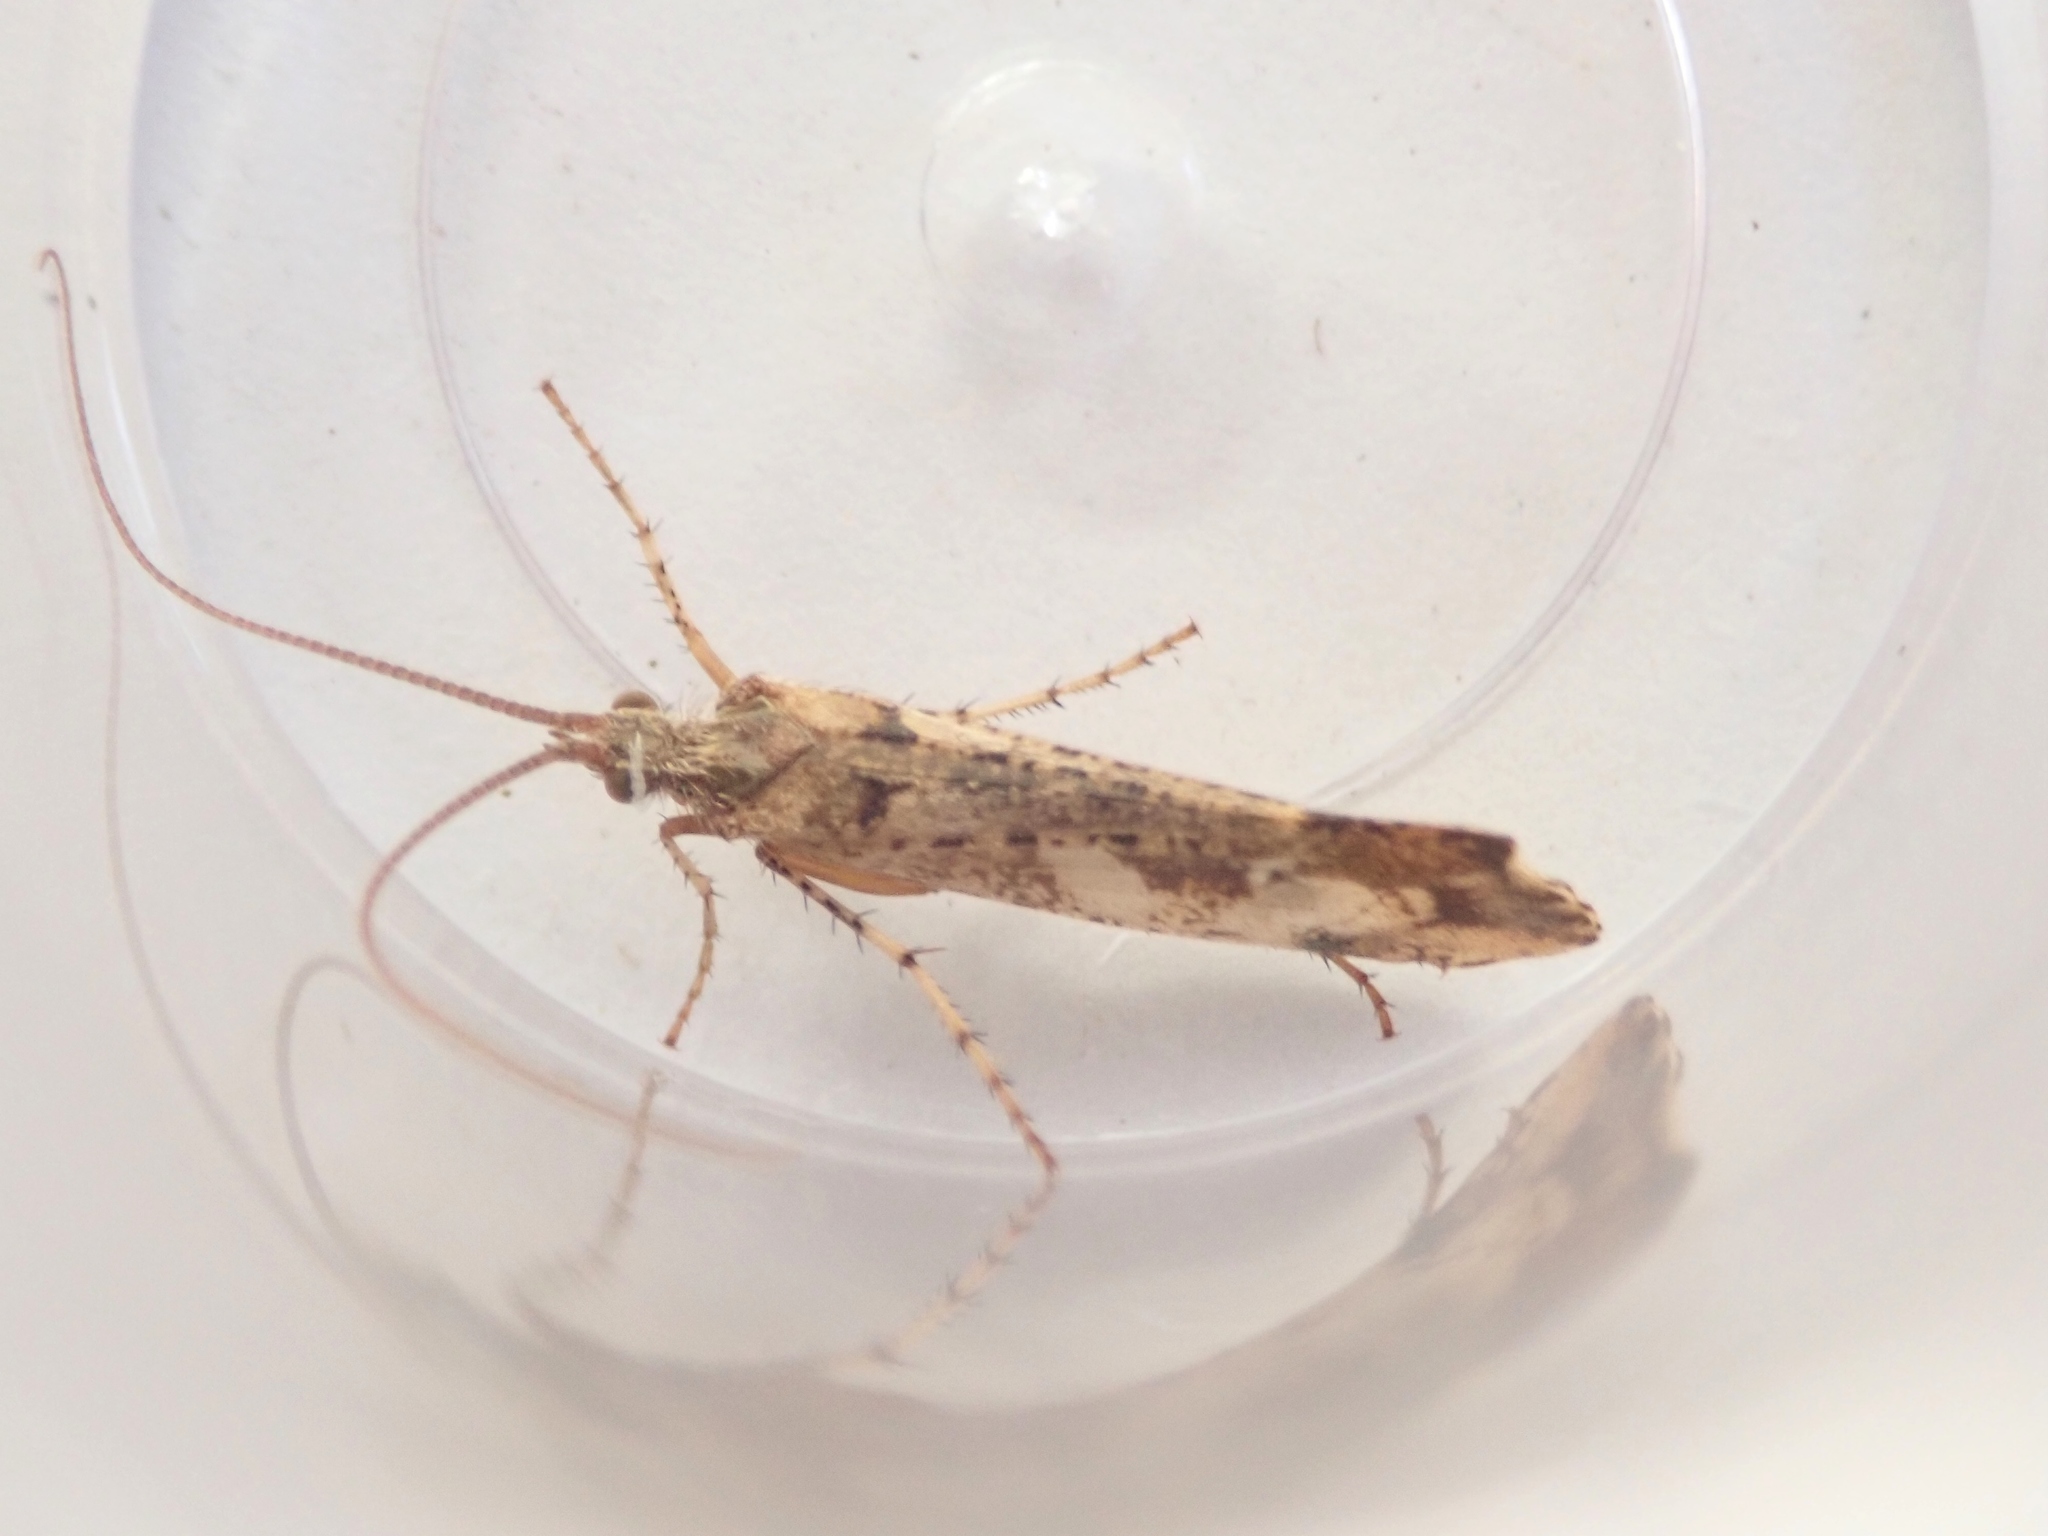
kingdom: Animalia
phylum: Arthropoda
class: Insecta
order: Trichoptera
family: Limnephilidae
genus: Glyphotaelius
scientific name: Glyphotaelius pellucidus
